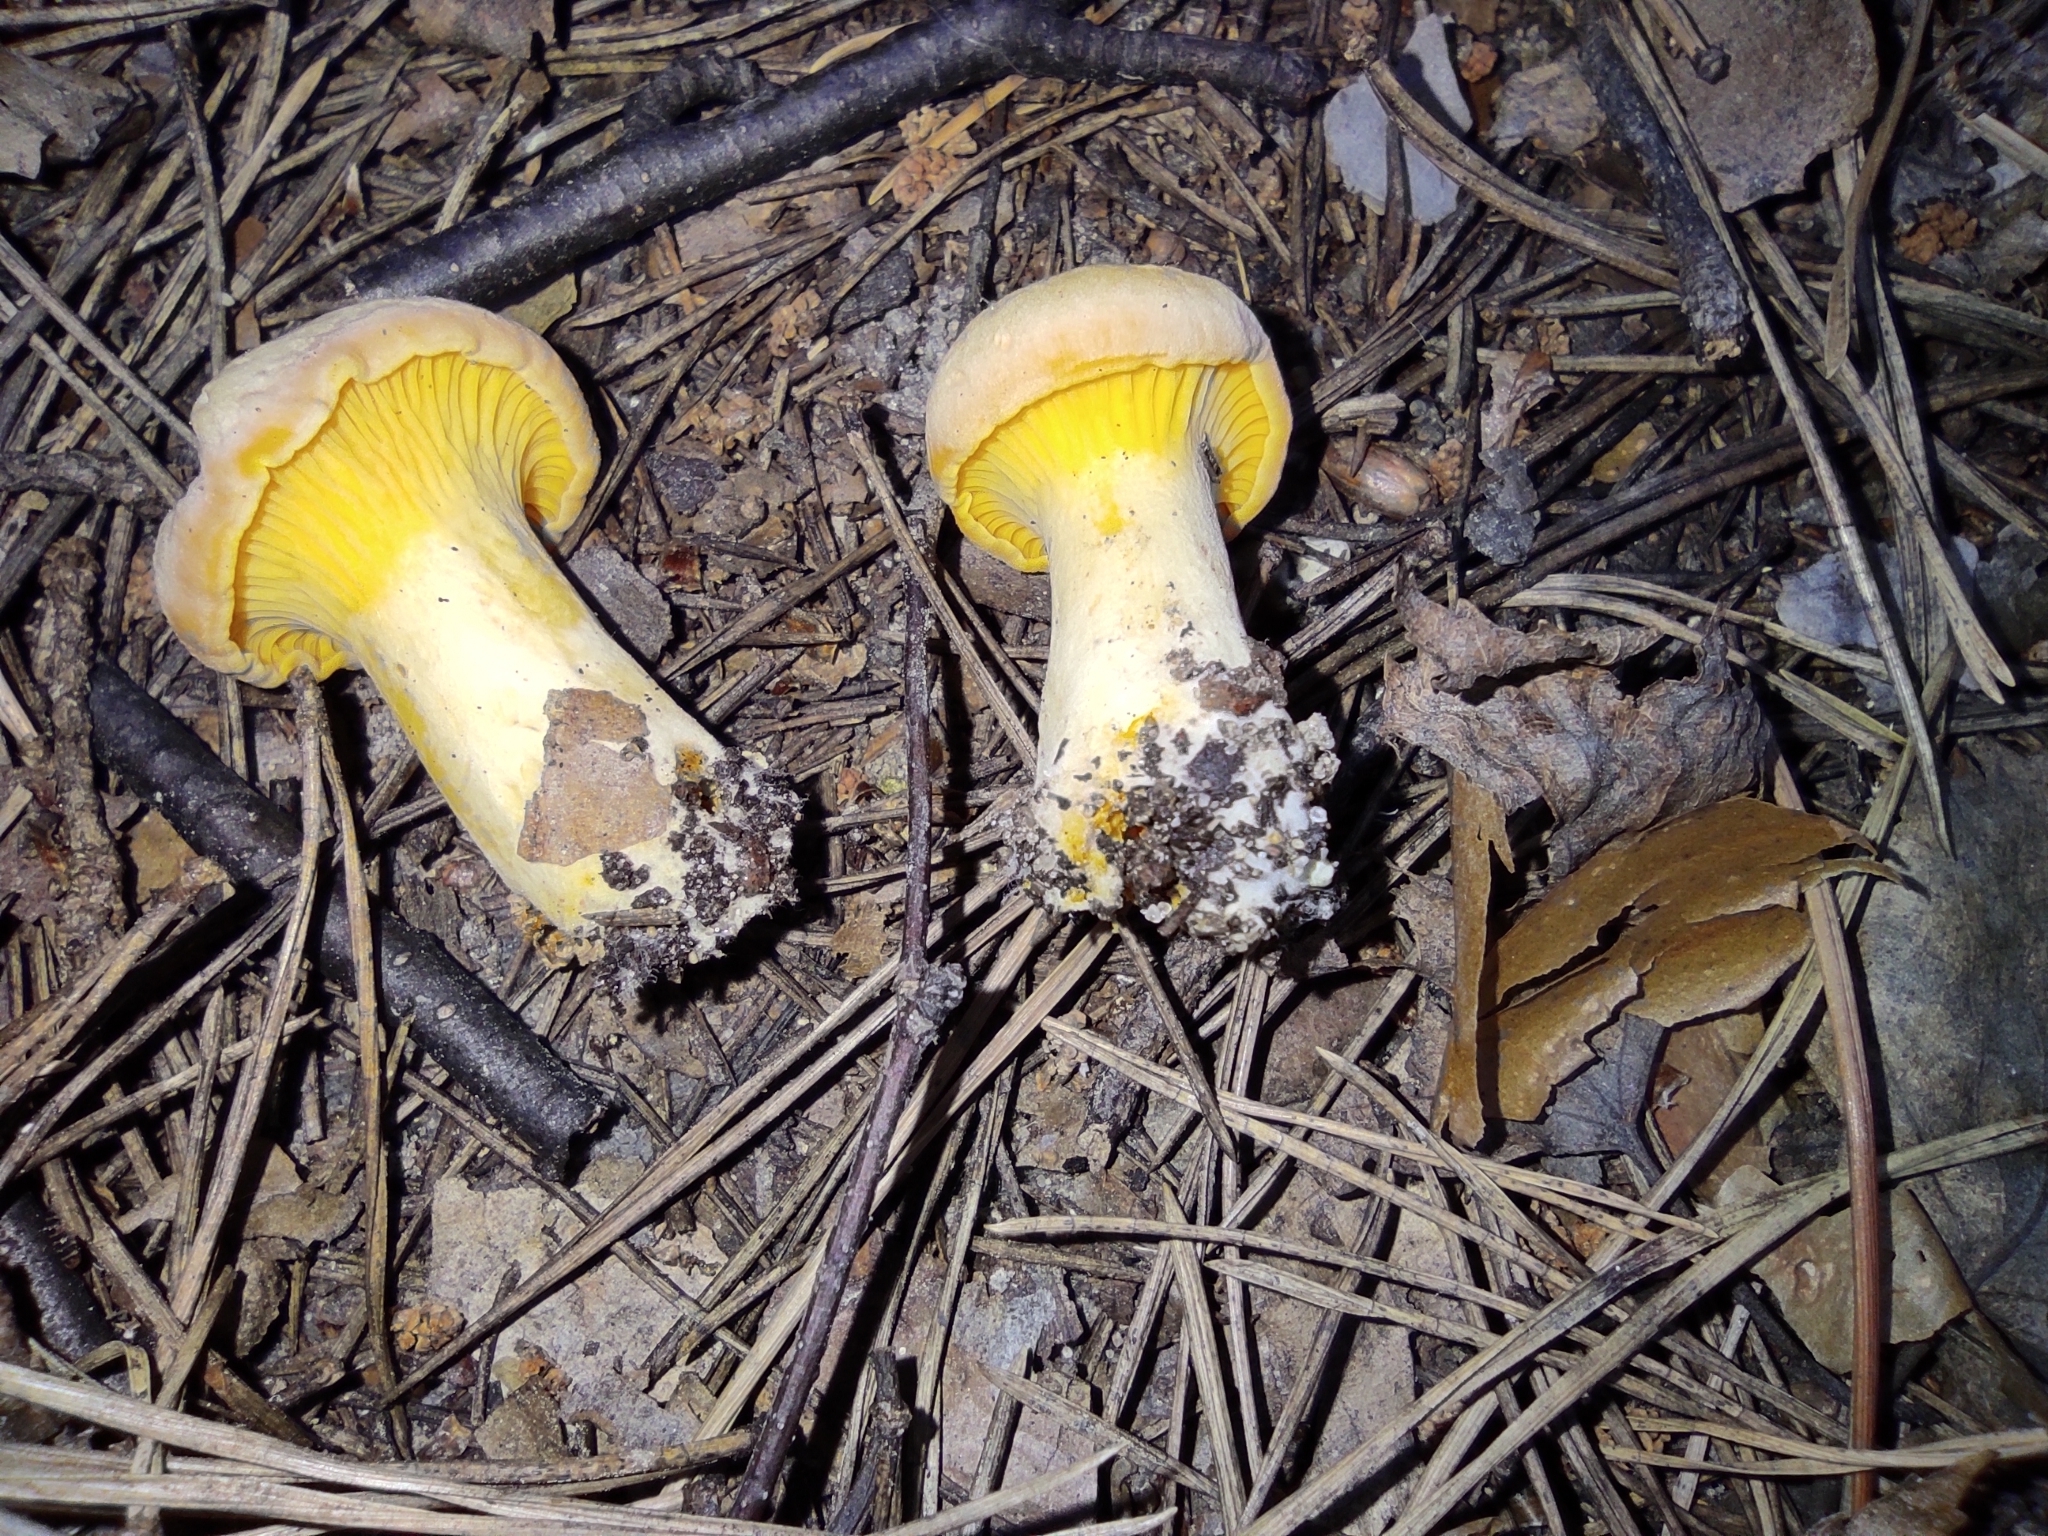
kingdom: Fungi
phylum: Basidiomycota
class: Agaricomycetes
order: Cantharellales
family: Hydnaceae
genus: Cantharellus
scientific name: Cantharellus cibarius
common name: Chanterelle
